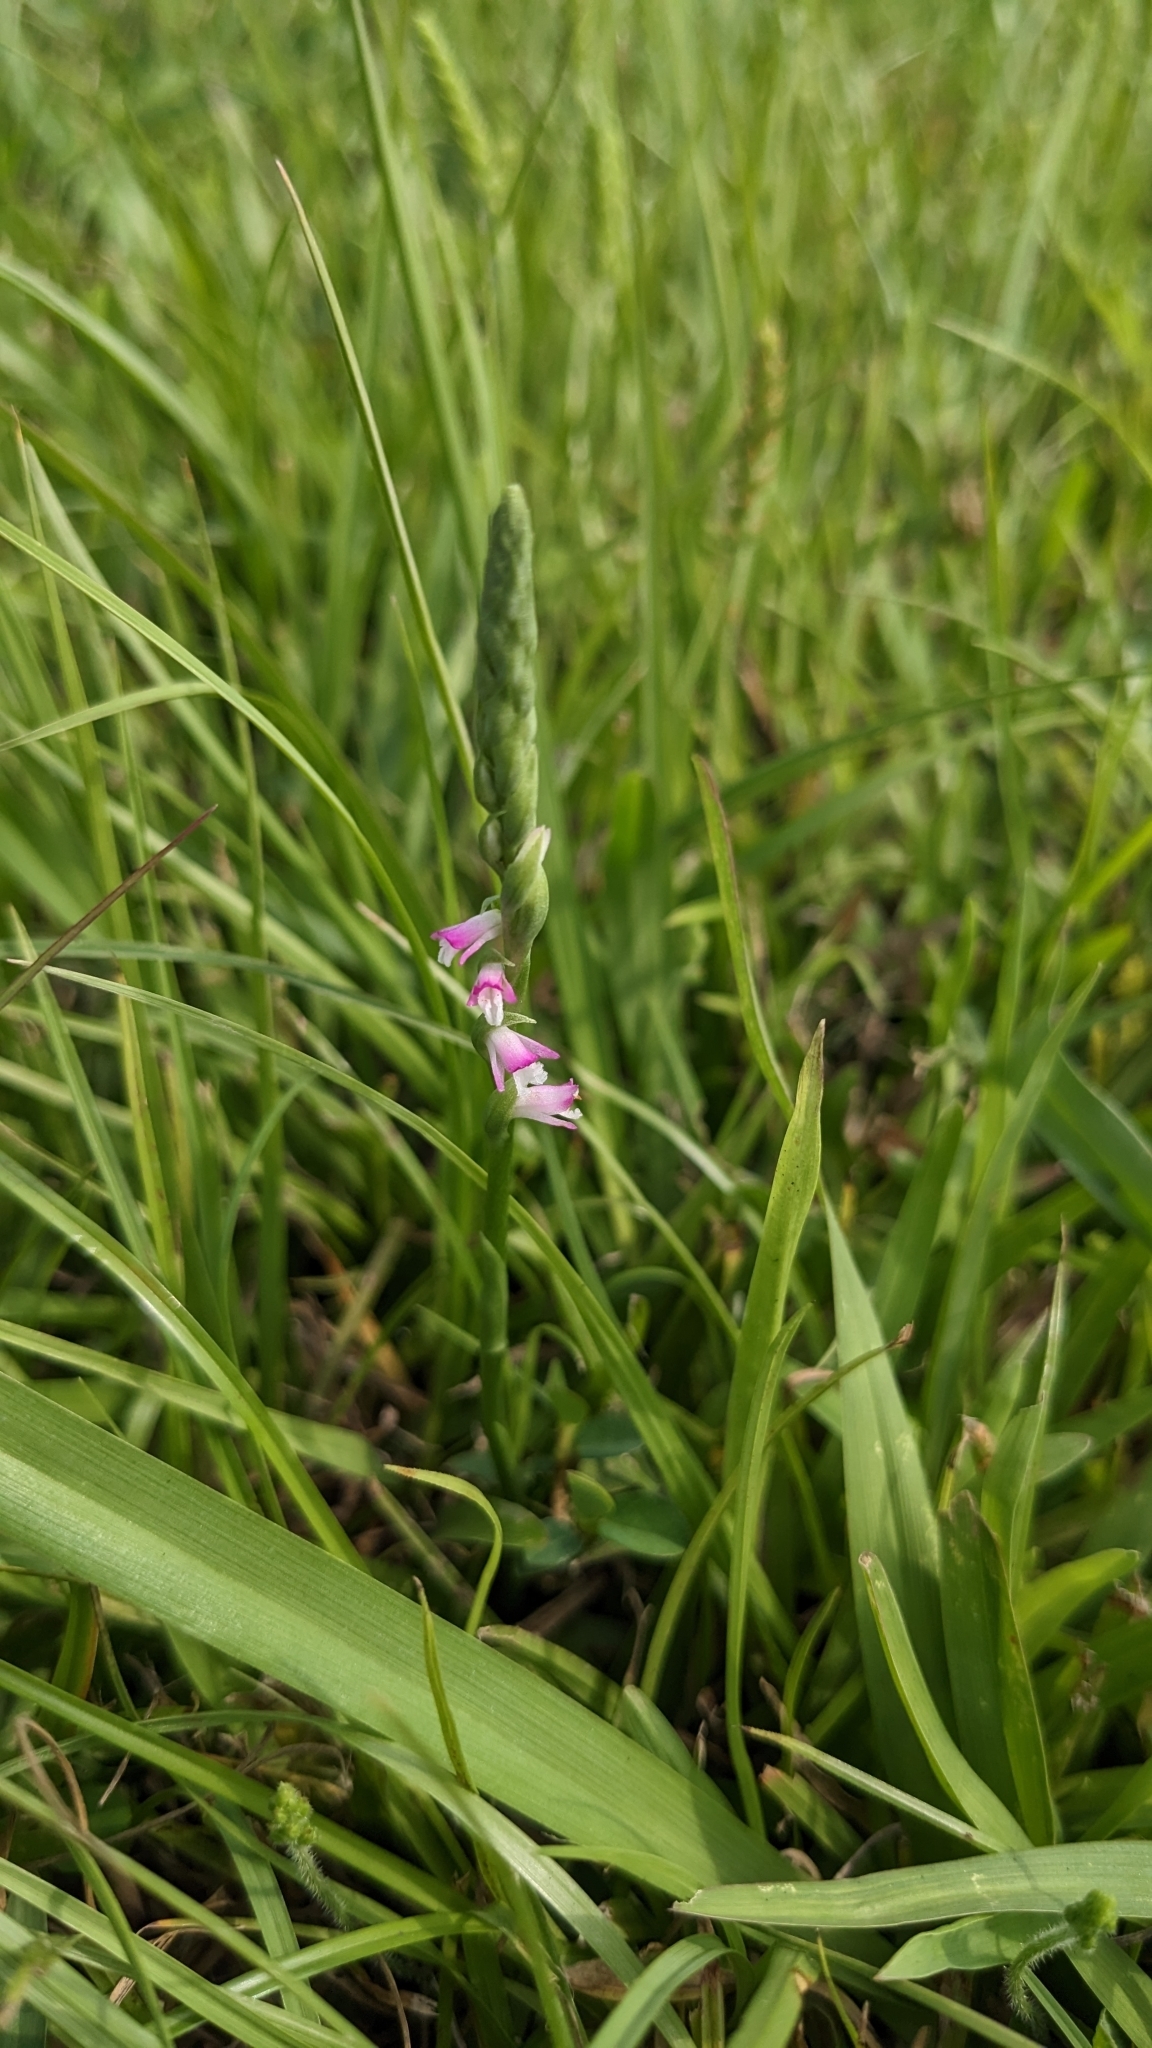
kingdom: Plantae
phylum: Tracheophyta
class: Liliopsida
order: Asparagales
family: Orchidaceae
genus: Spiranthes
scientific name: Spiranthes sinensis
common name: Chinese spiranthes
